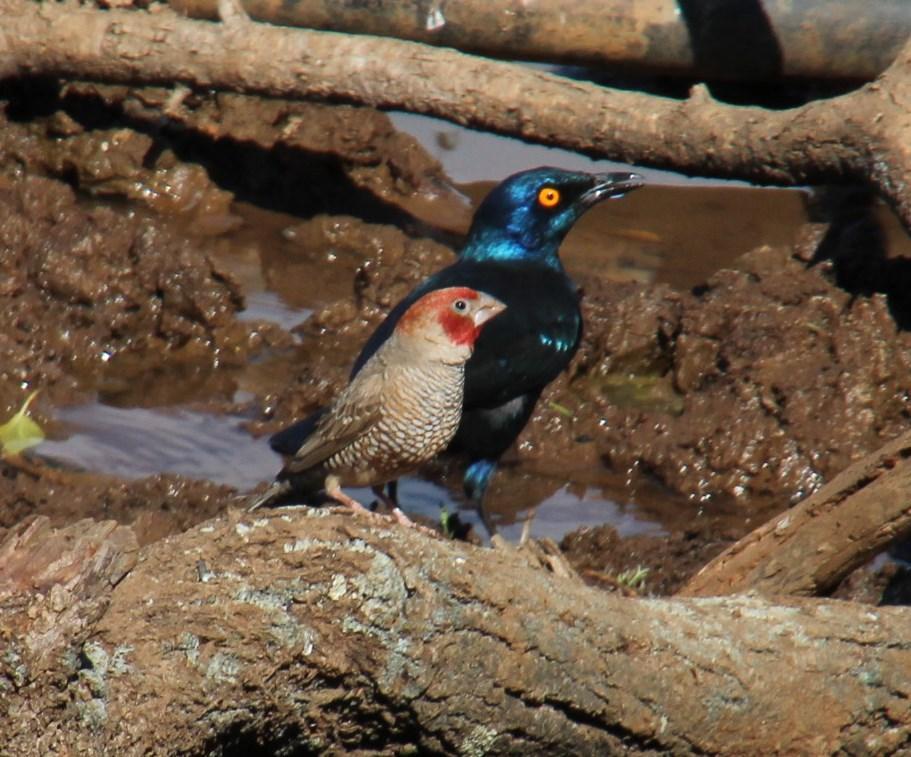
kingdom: Animalia
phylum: Chordata
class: Aves
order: Passeriformes
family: Estrildidae
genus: Amadina
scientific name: Amadina erythrocephala
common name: Red-headed finch
